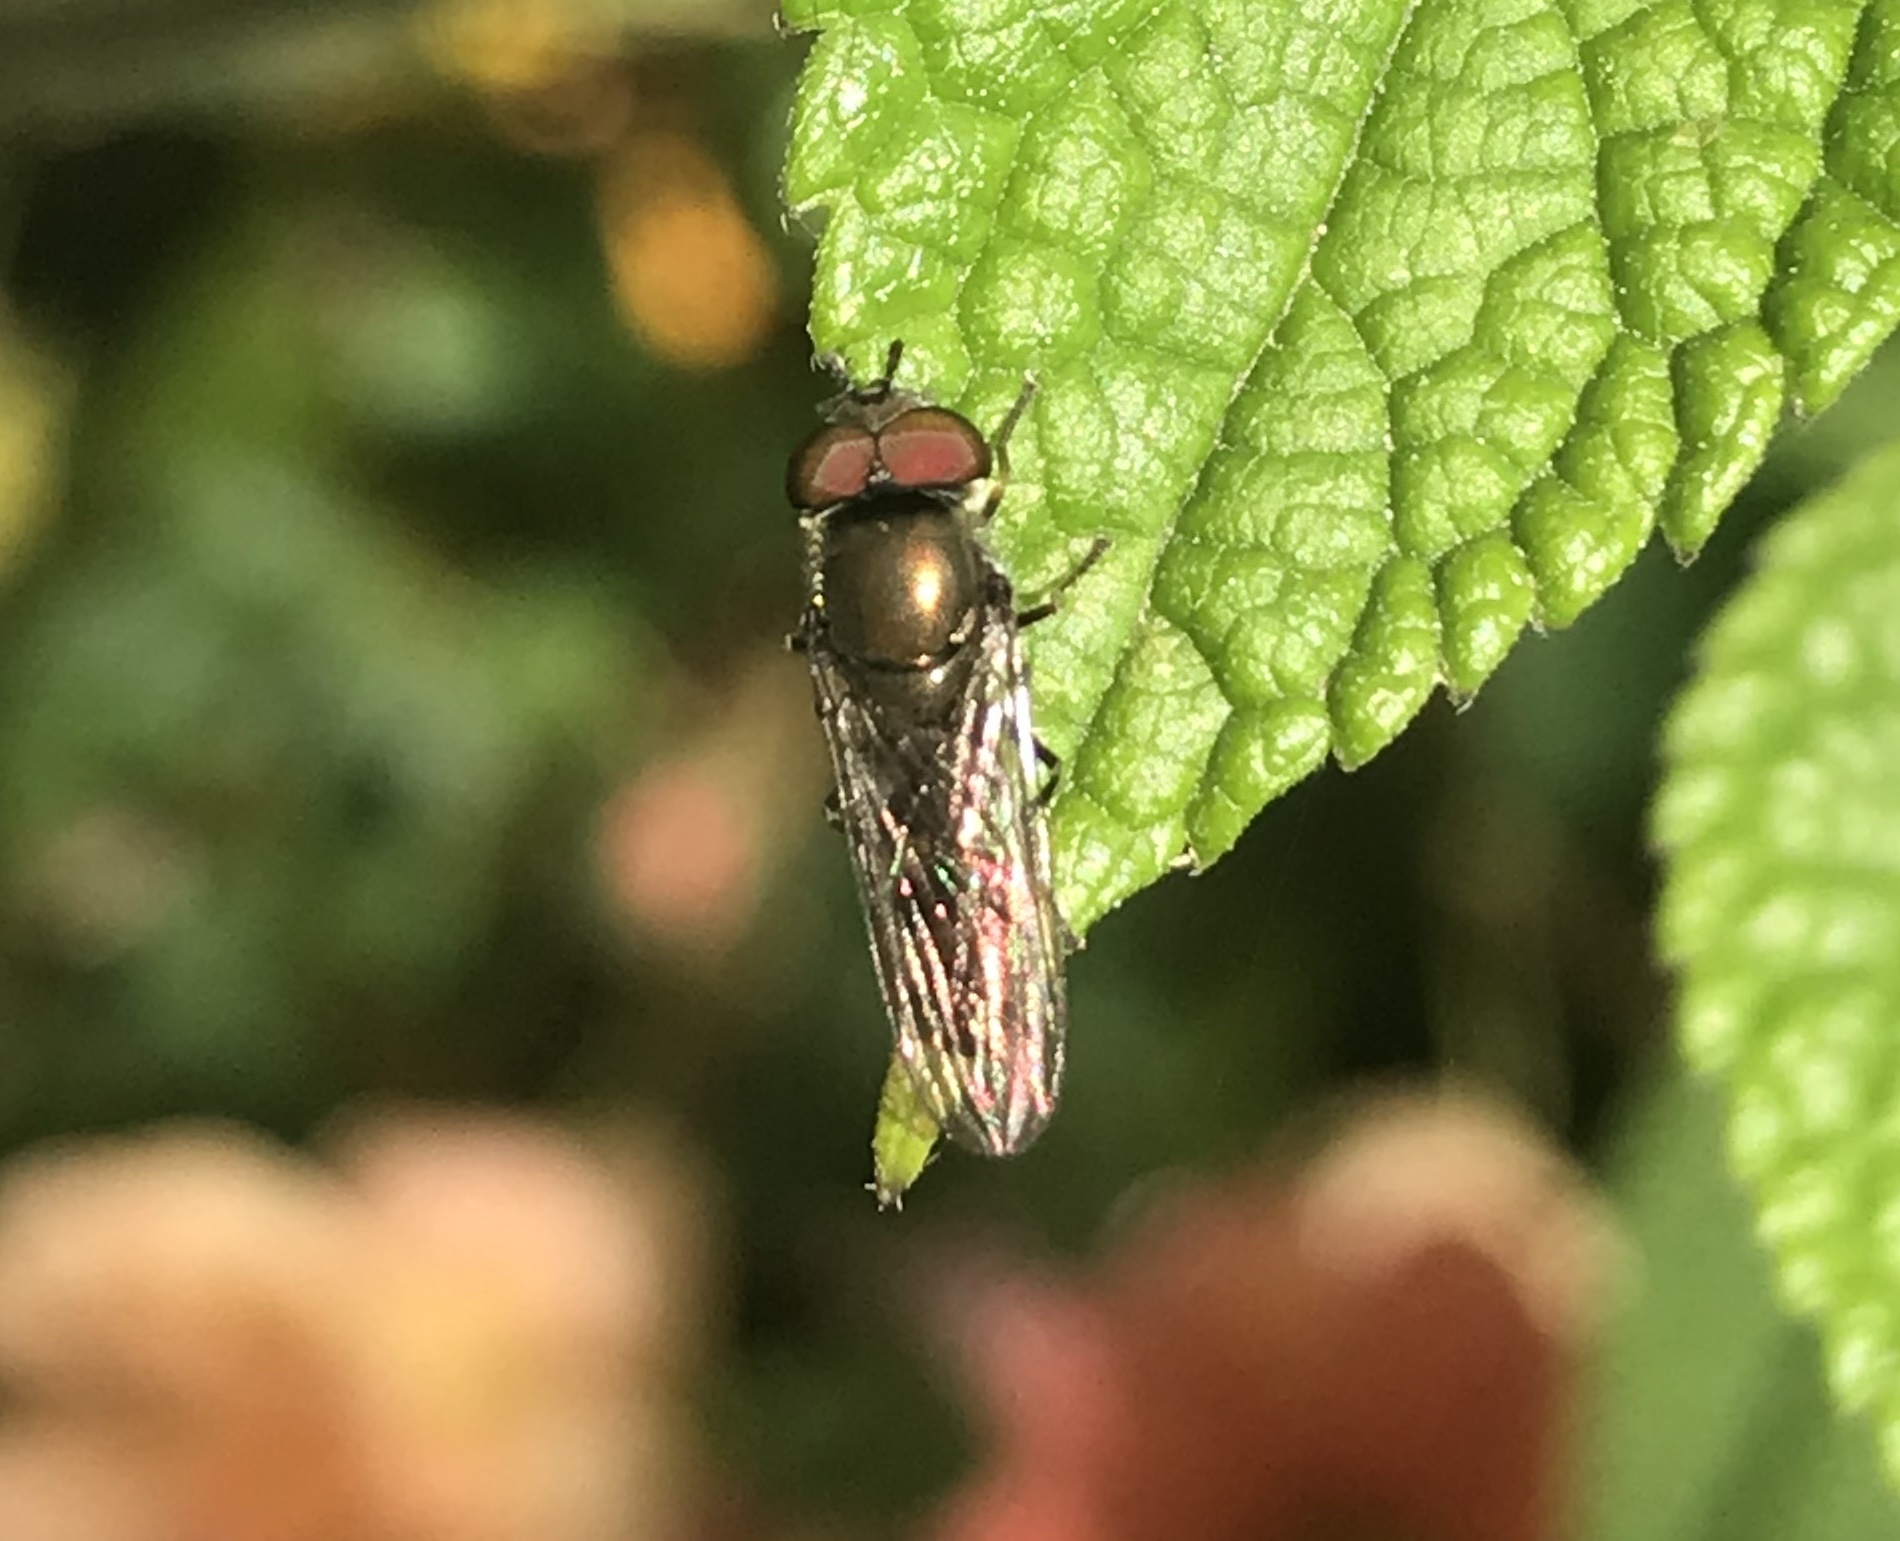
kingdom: Animalia
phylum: Arthropoda
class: Insecta
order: Diptera
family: Syrphidae
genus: Platycheirus
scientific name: Platycheirus
